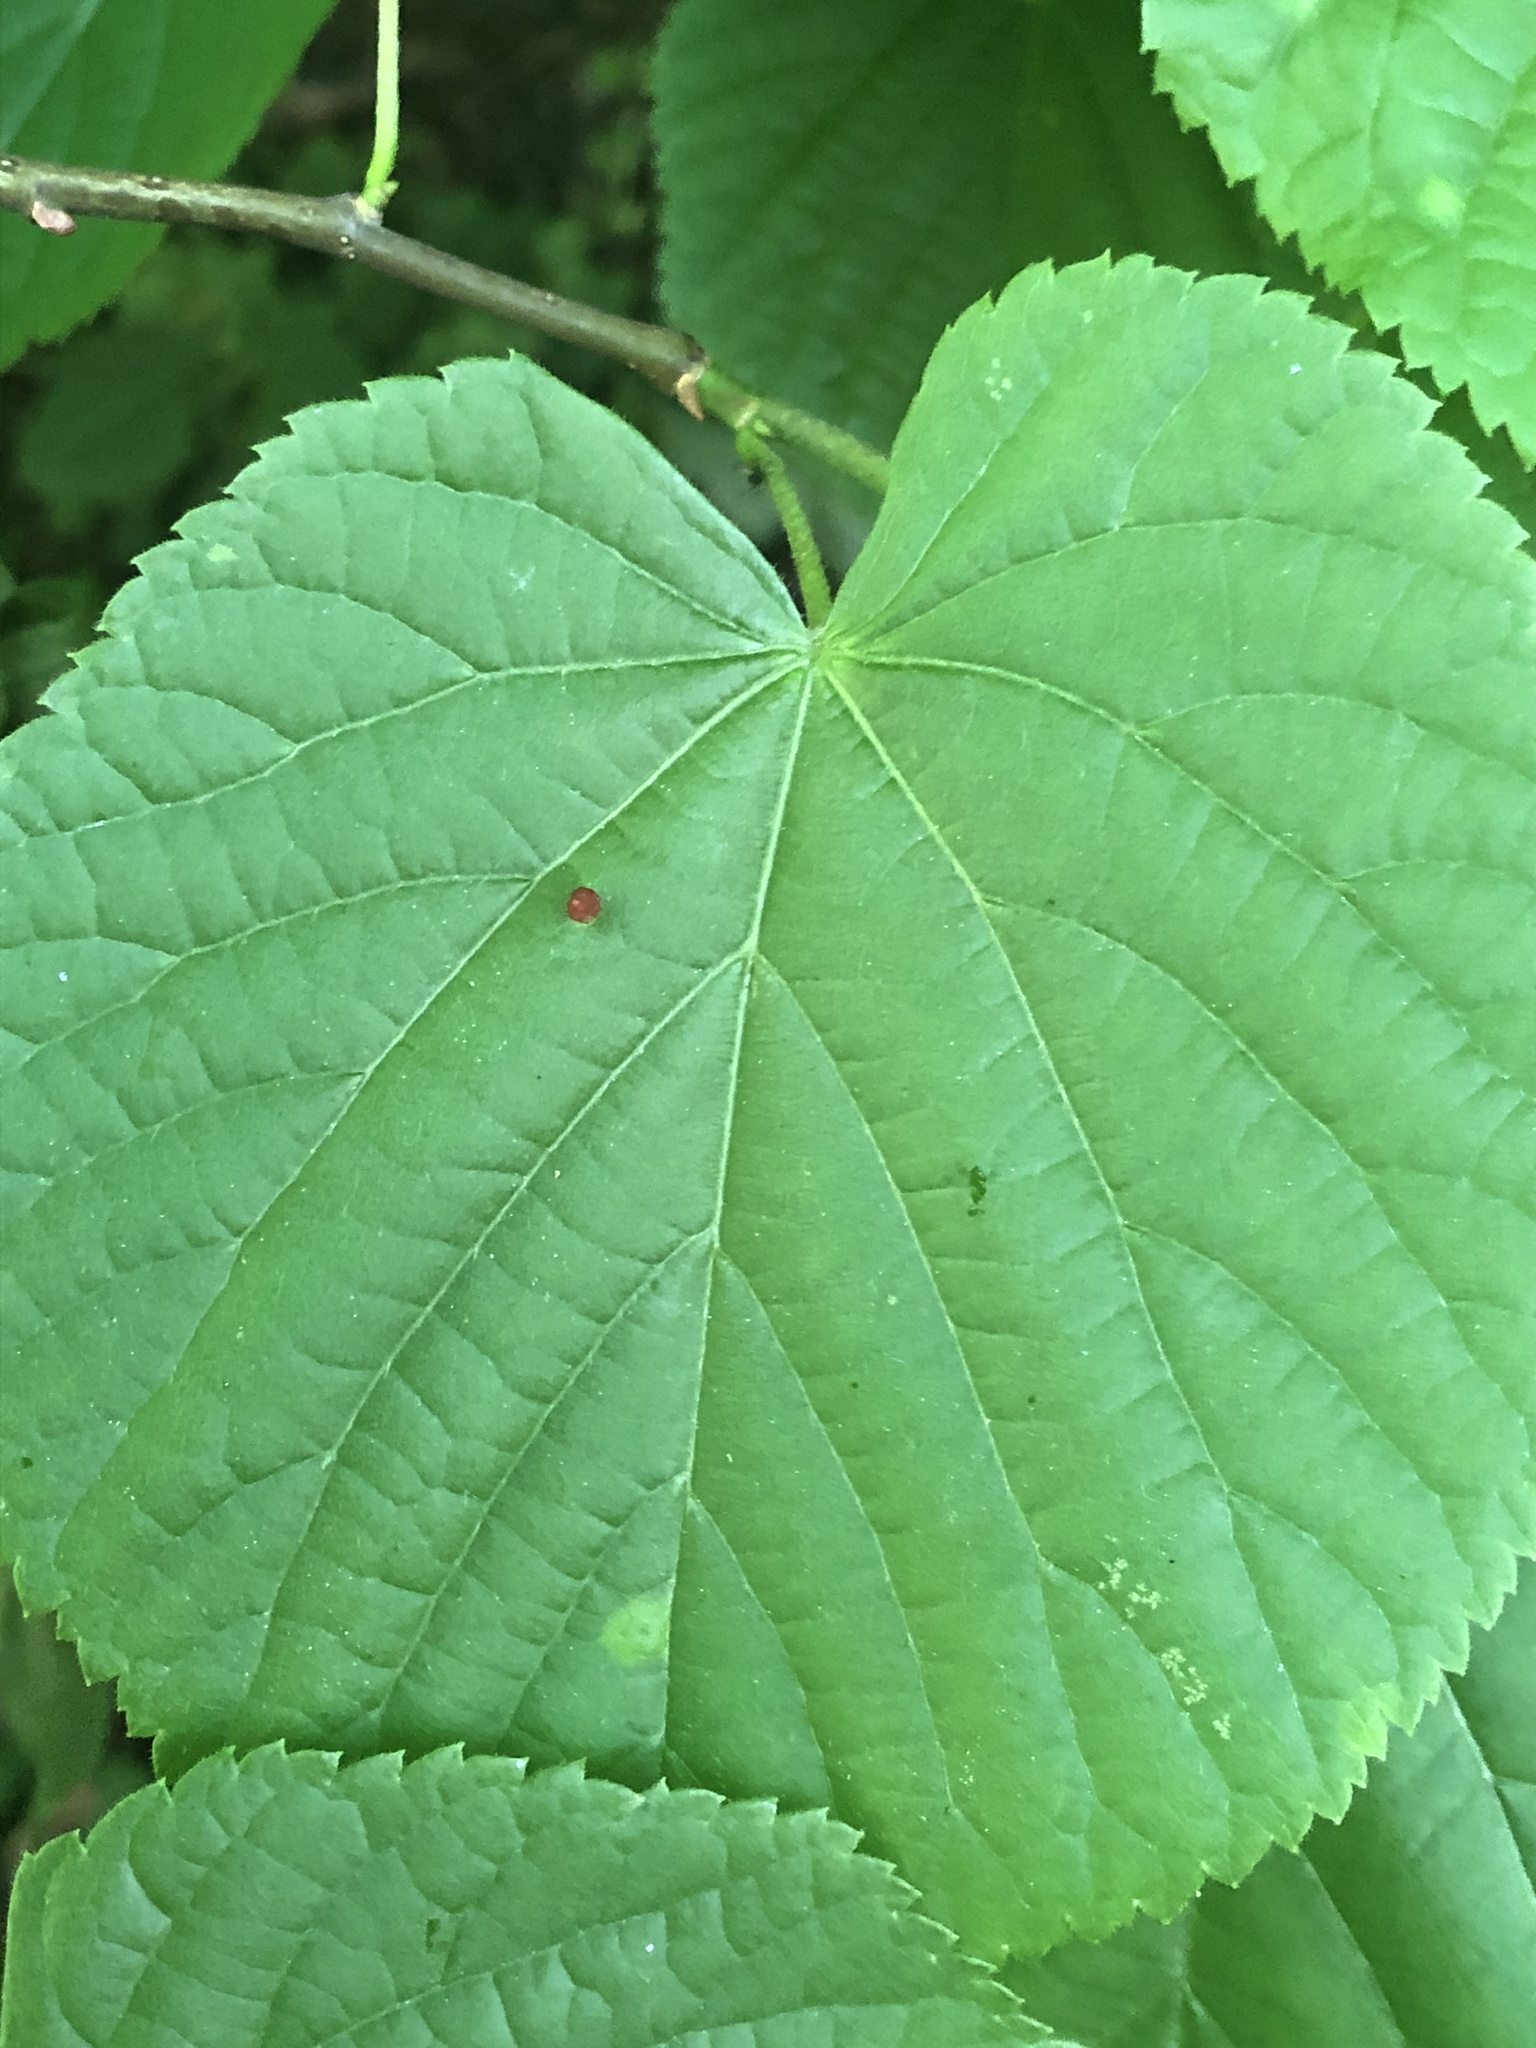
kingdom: Animalia
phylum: Arthropoda
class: Arachnida
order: Trombidiformes
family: Eriophyidae
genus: Eriophyes
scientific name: Eriophyes tiliae
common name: Red nail gall mite
